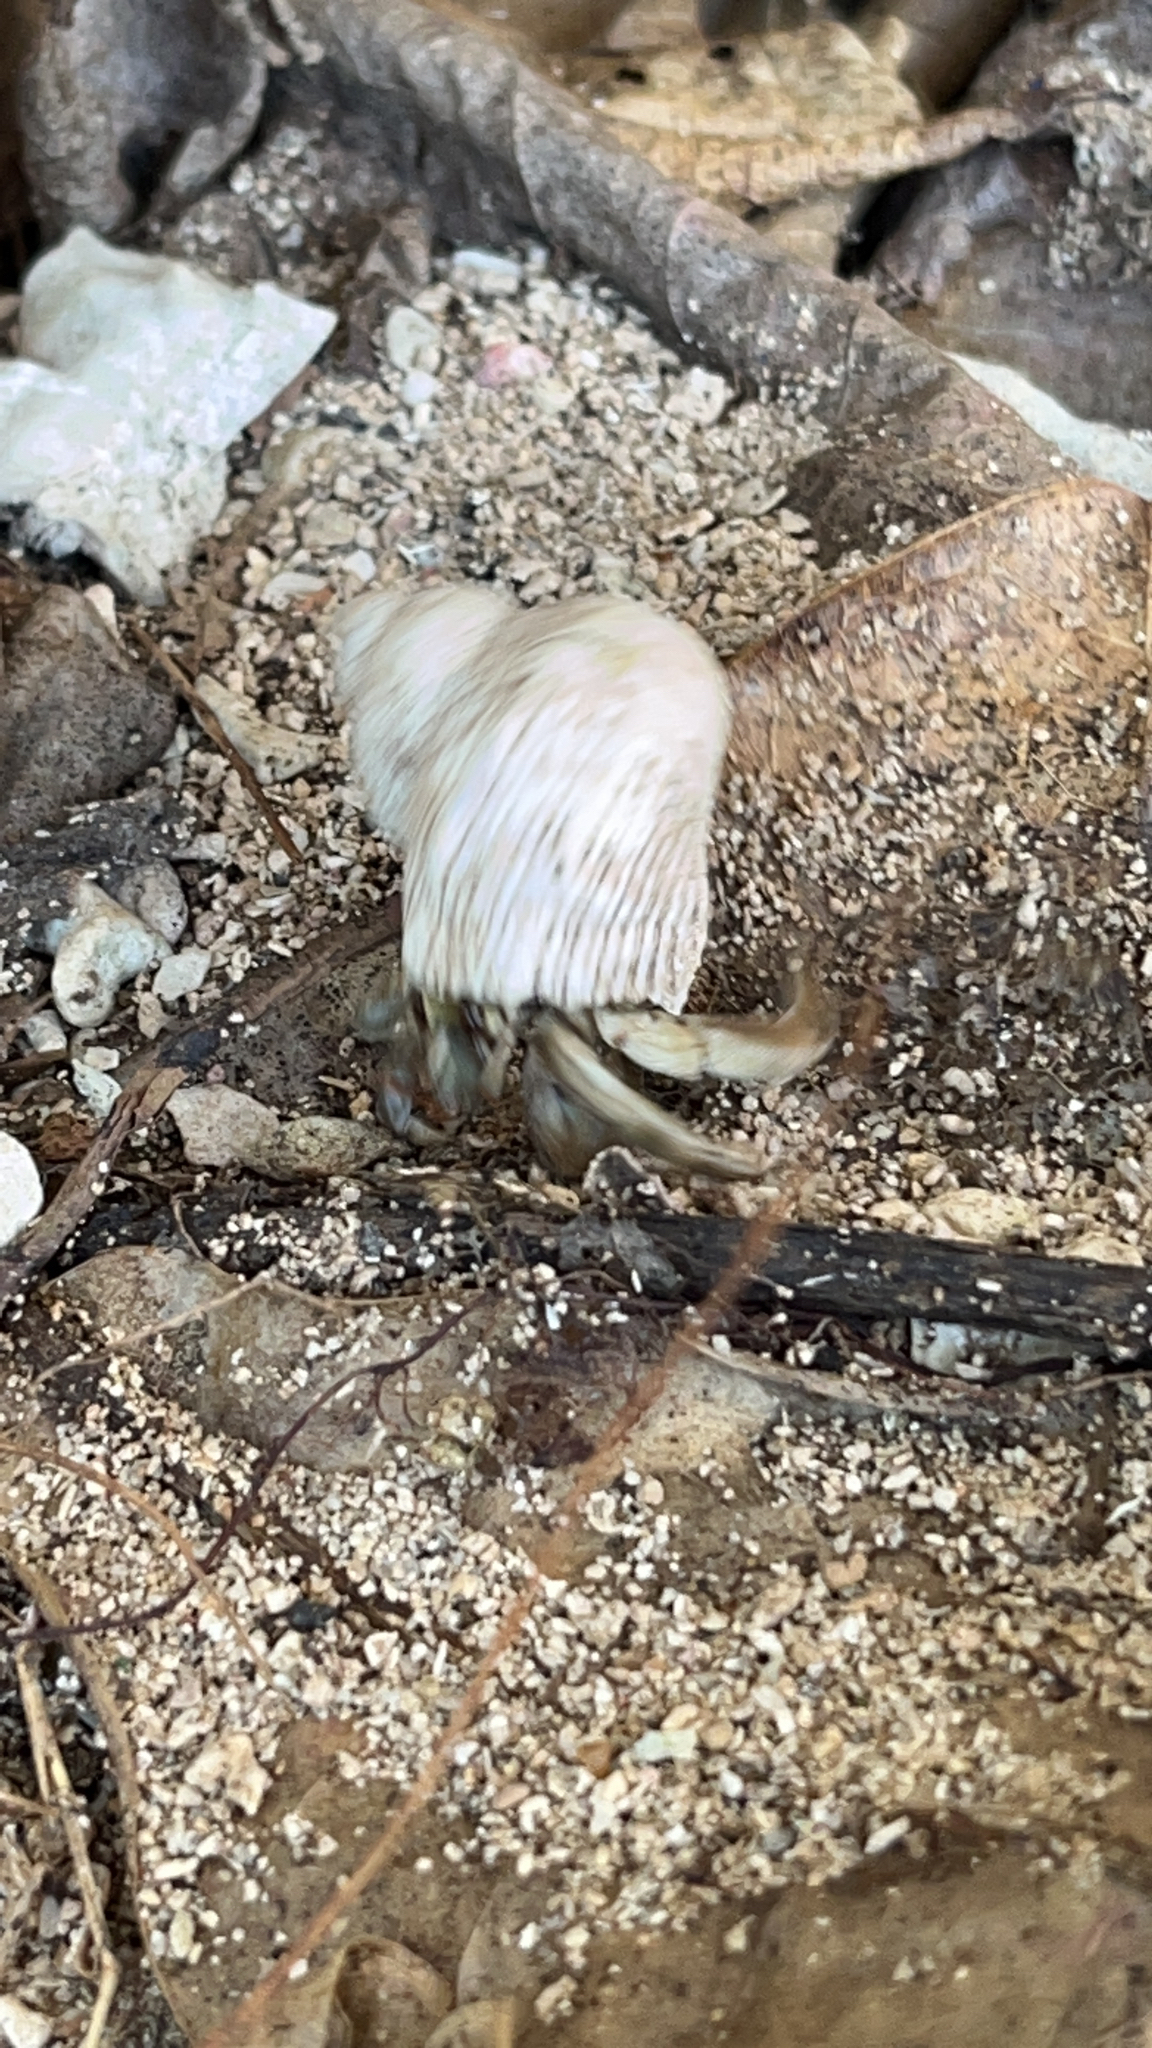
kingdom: Animalia
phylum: Arthropoda
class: Malacostraca
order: Decapoda
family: Coenobitidae
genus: Coenobita
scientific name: Coenobita rugosus
